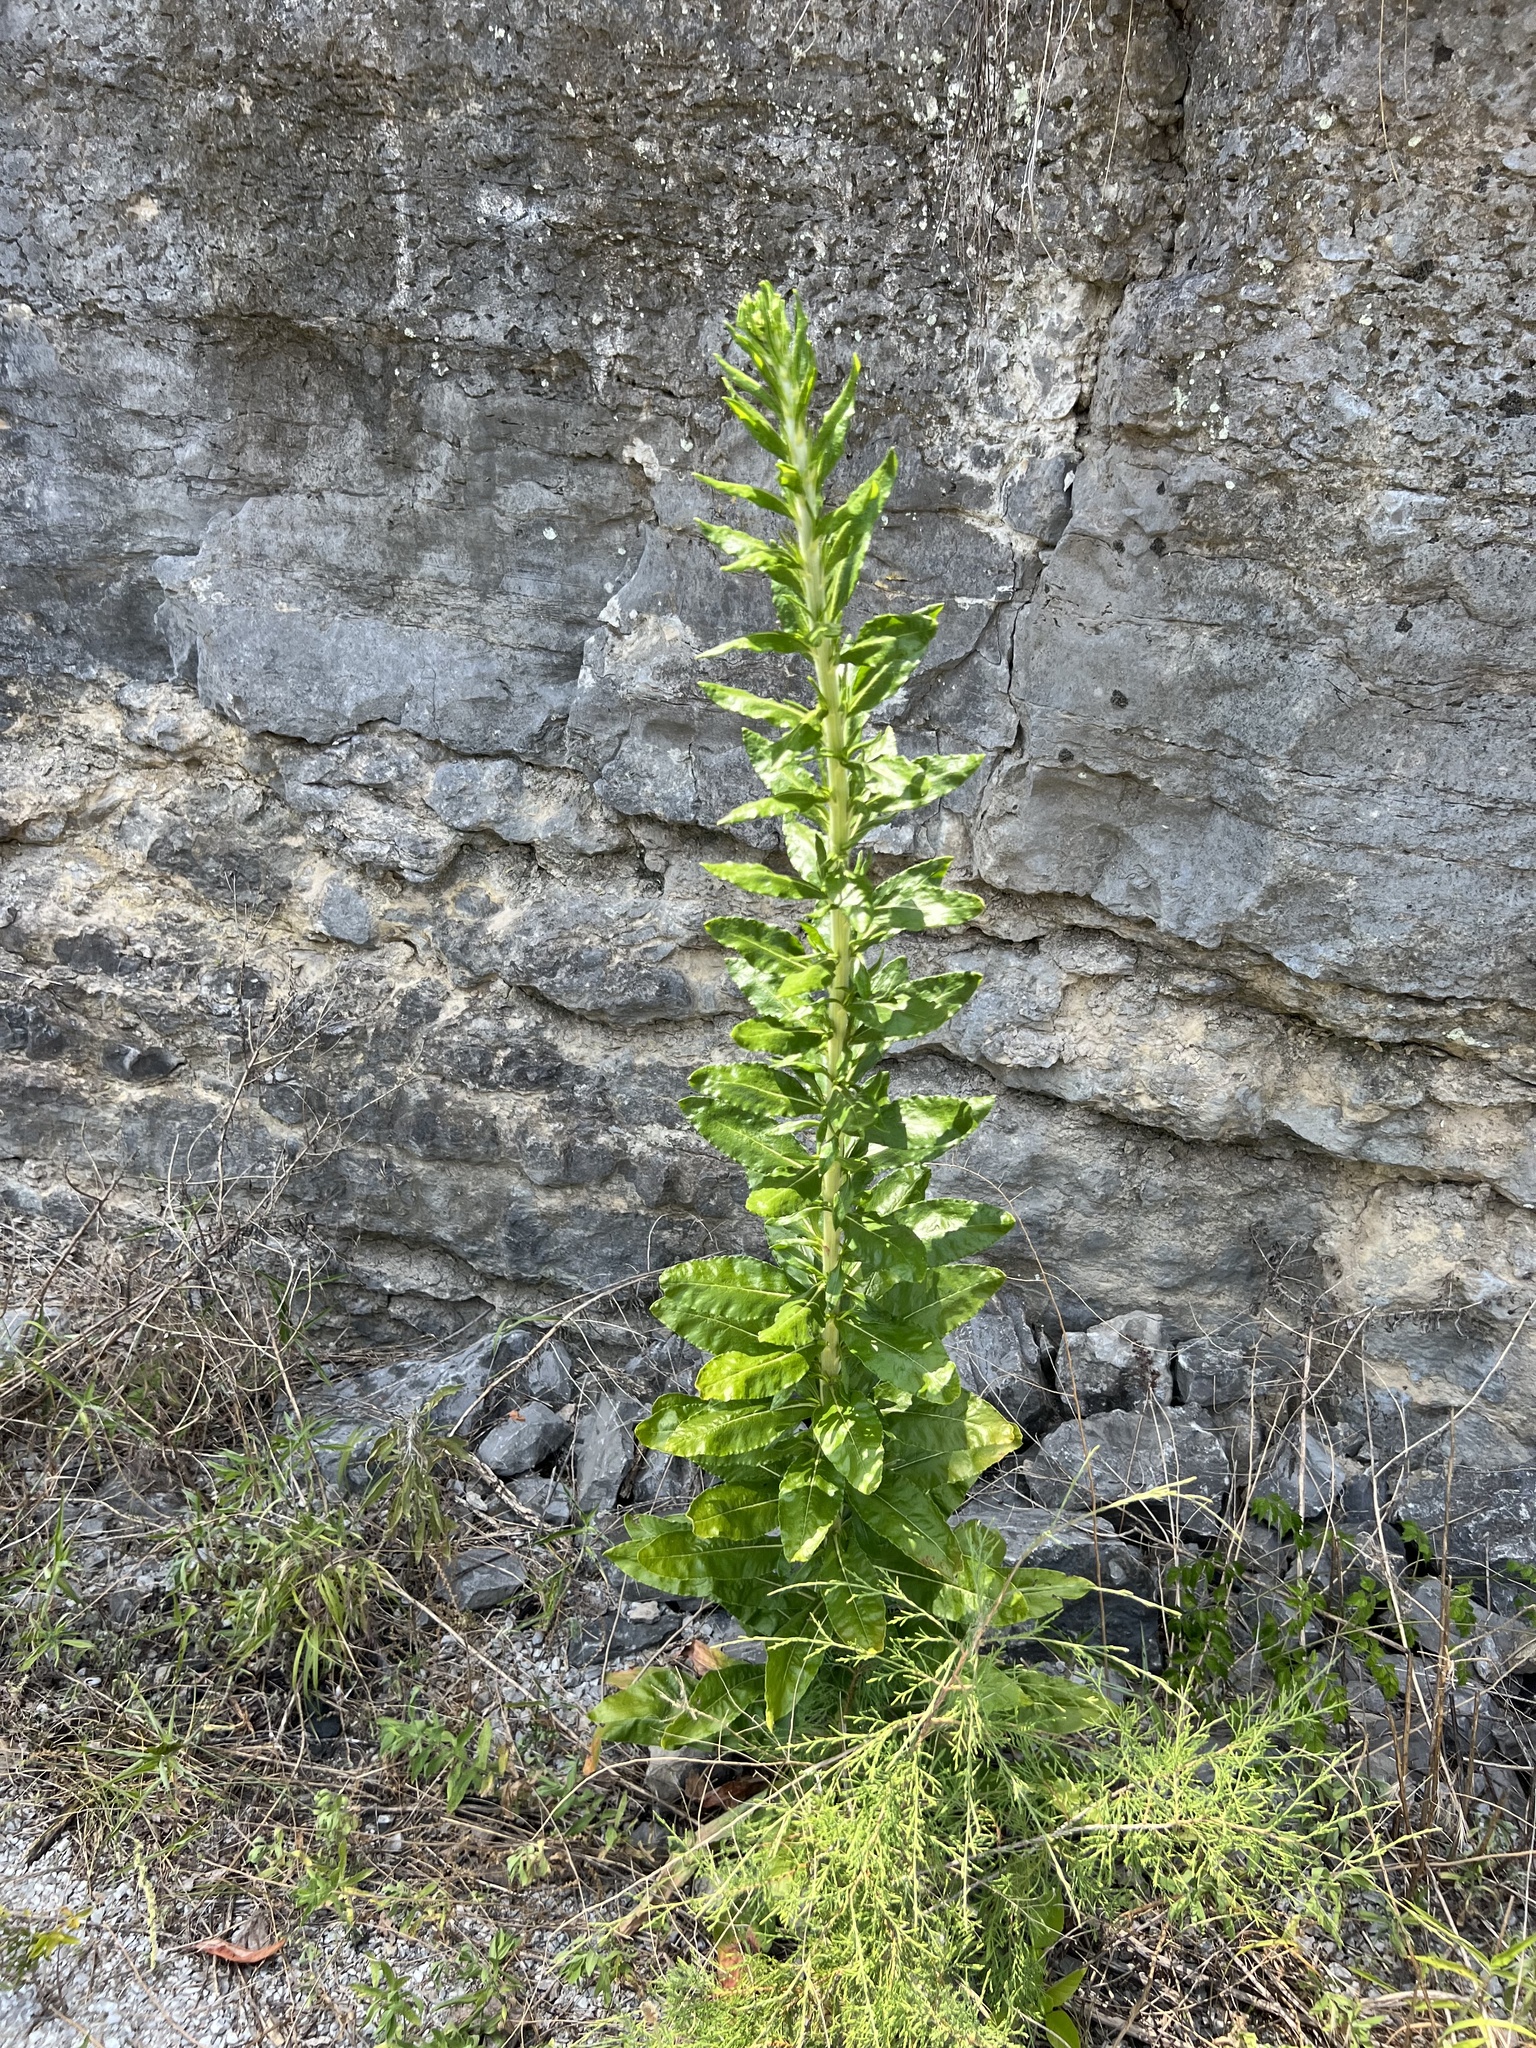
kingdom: Plantae
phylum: Tracheophyta
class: Magnoliopsida
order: Caryophyllales
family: Polygonaceae
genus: Eriogonum
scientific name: Eriogonum longifolium
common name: Longleaf wild buckwheat
